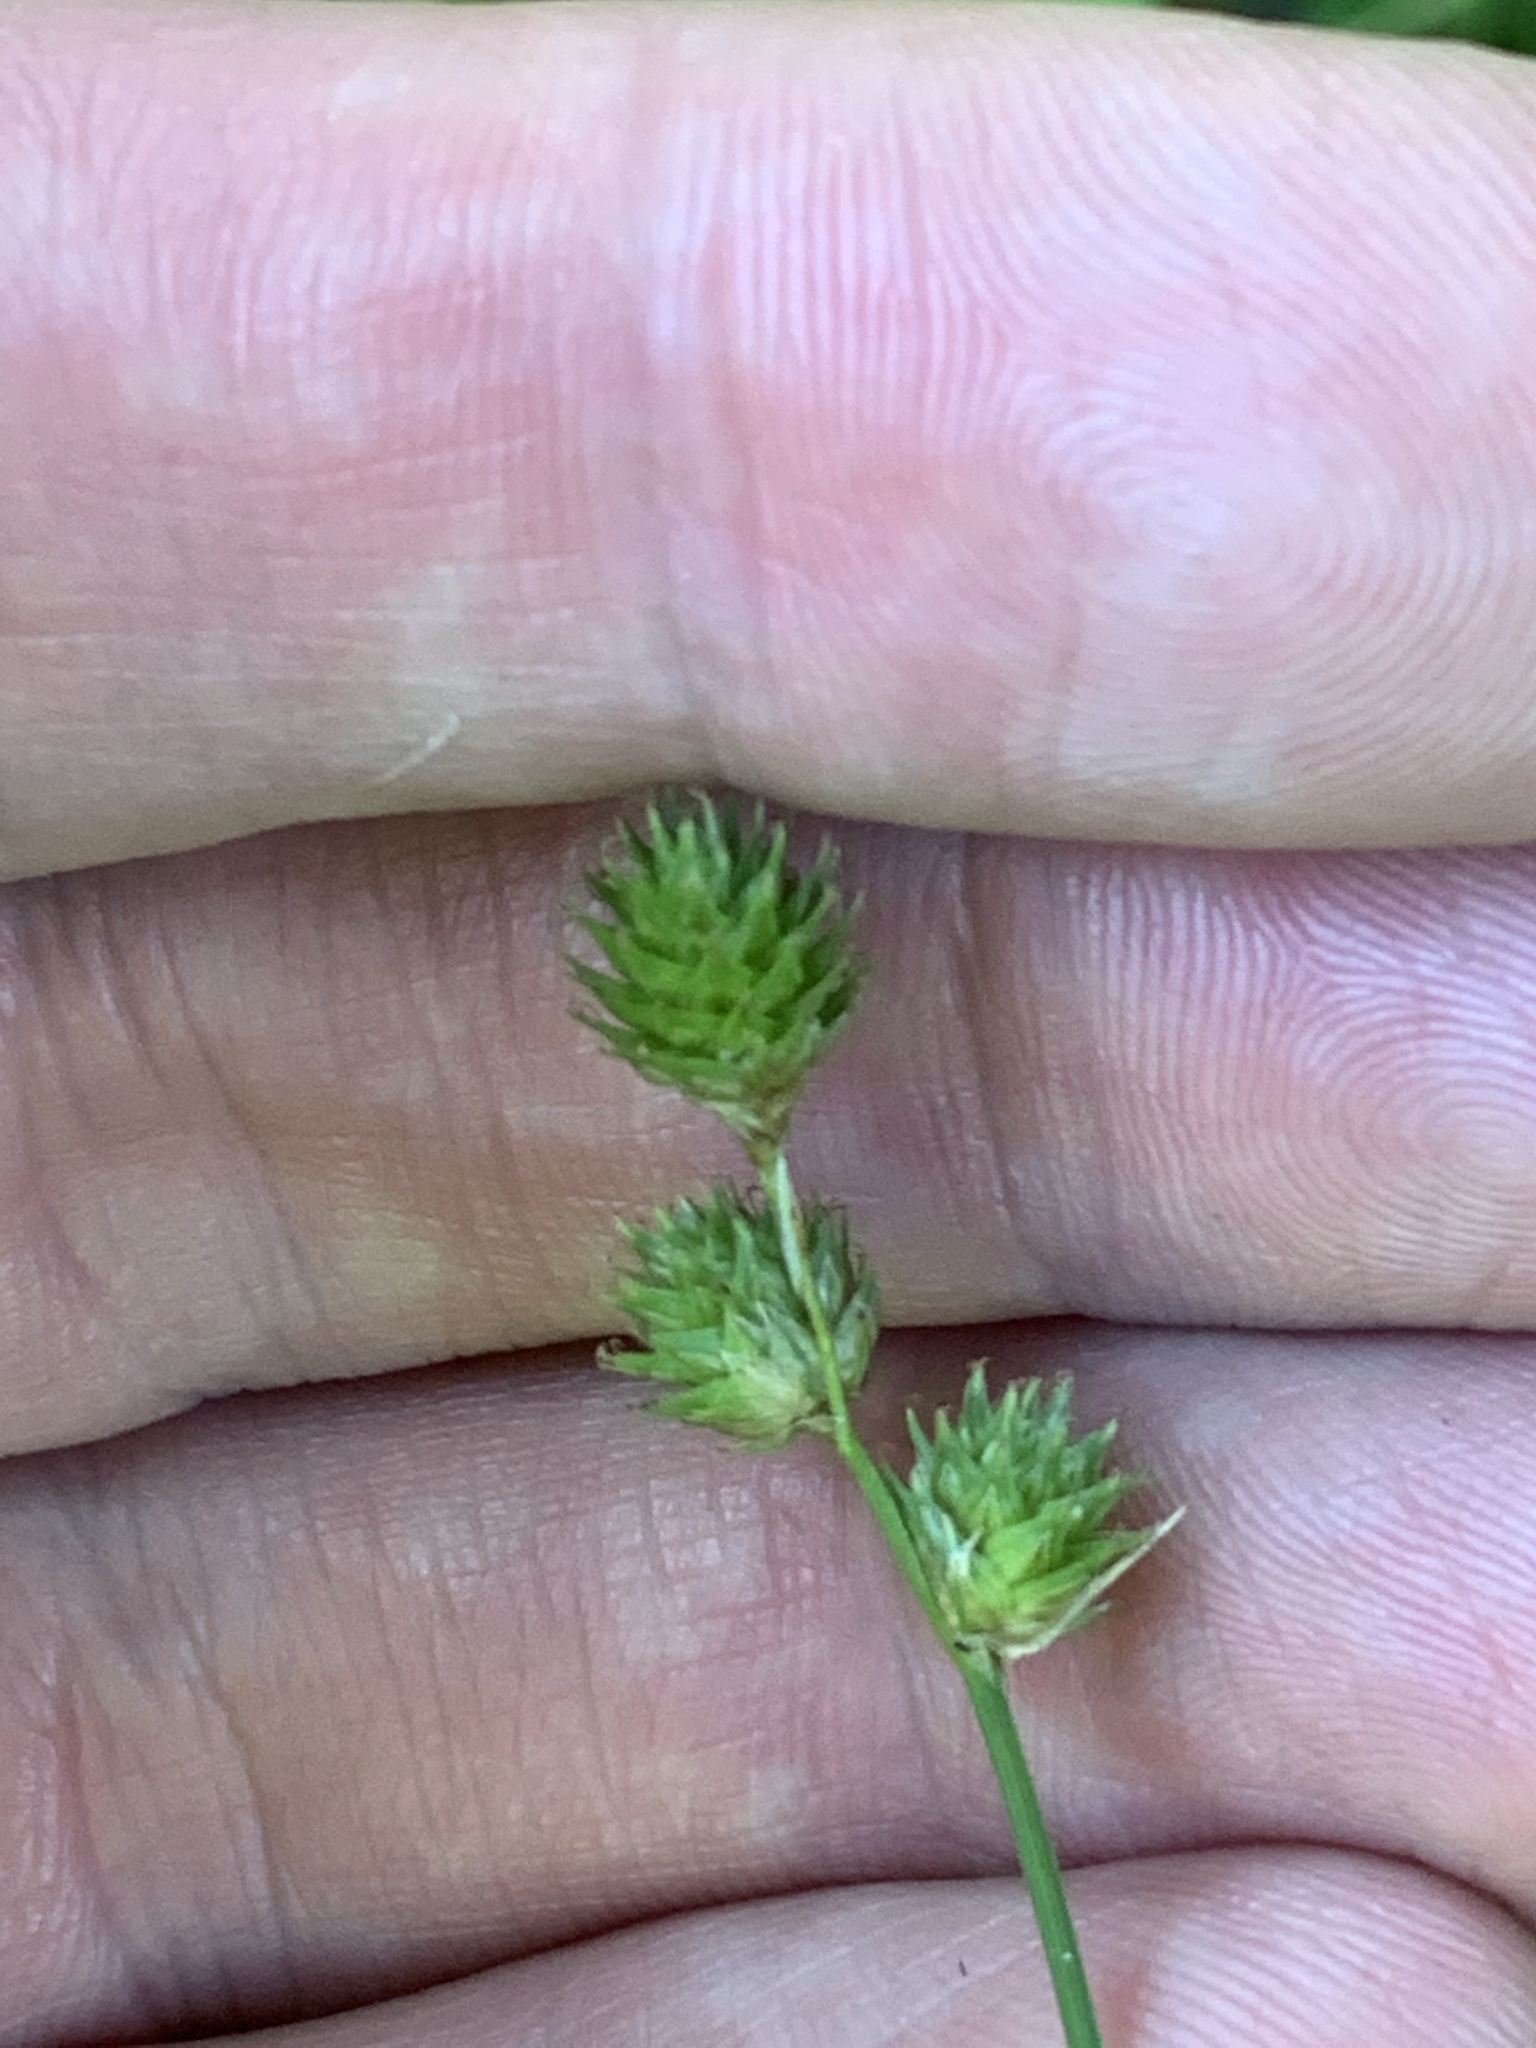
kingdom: Plantae
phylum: Tracheophyta
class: Liliopsida
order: Poales
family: Cyperaceae
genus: Carex
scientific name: Carex molesta
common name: Troublesome sedge
